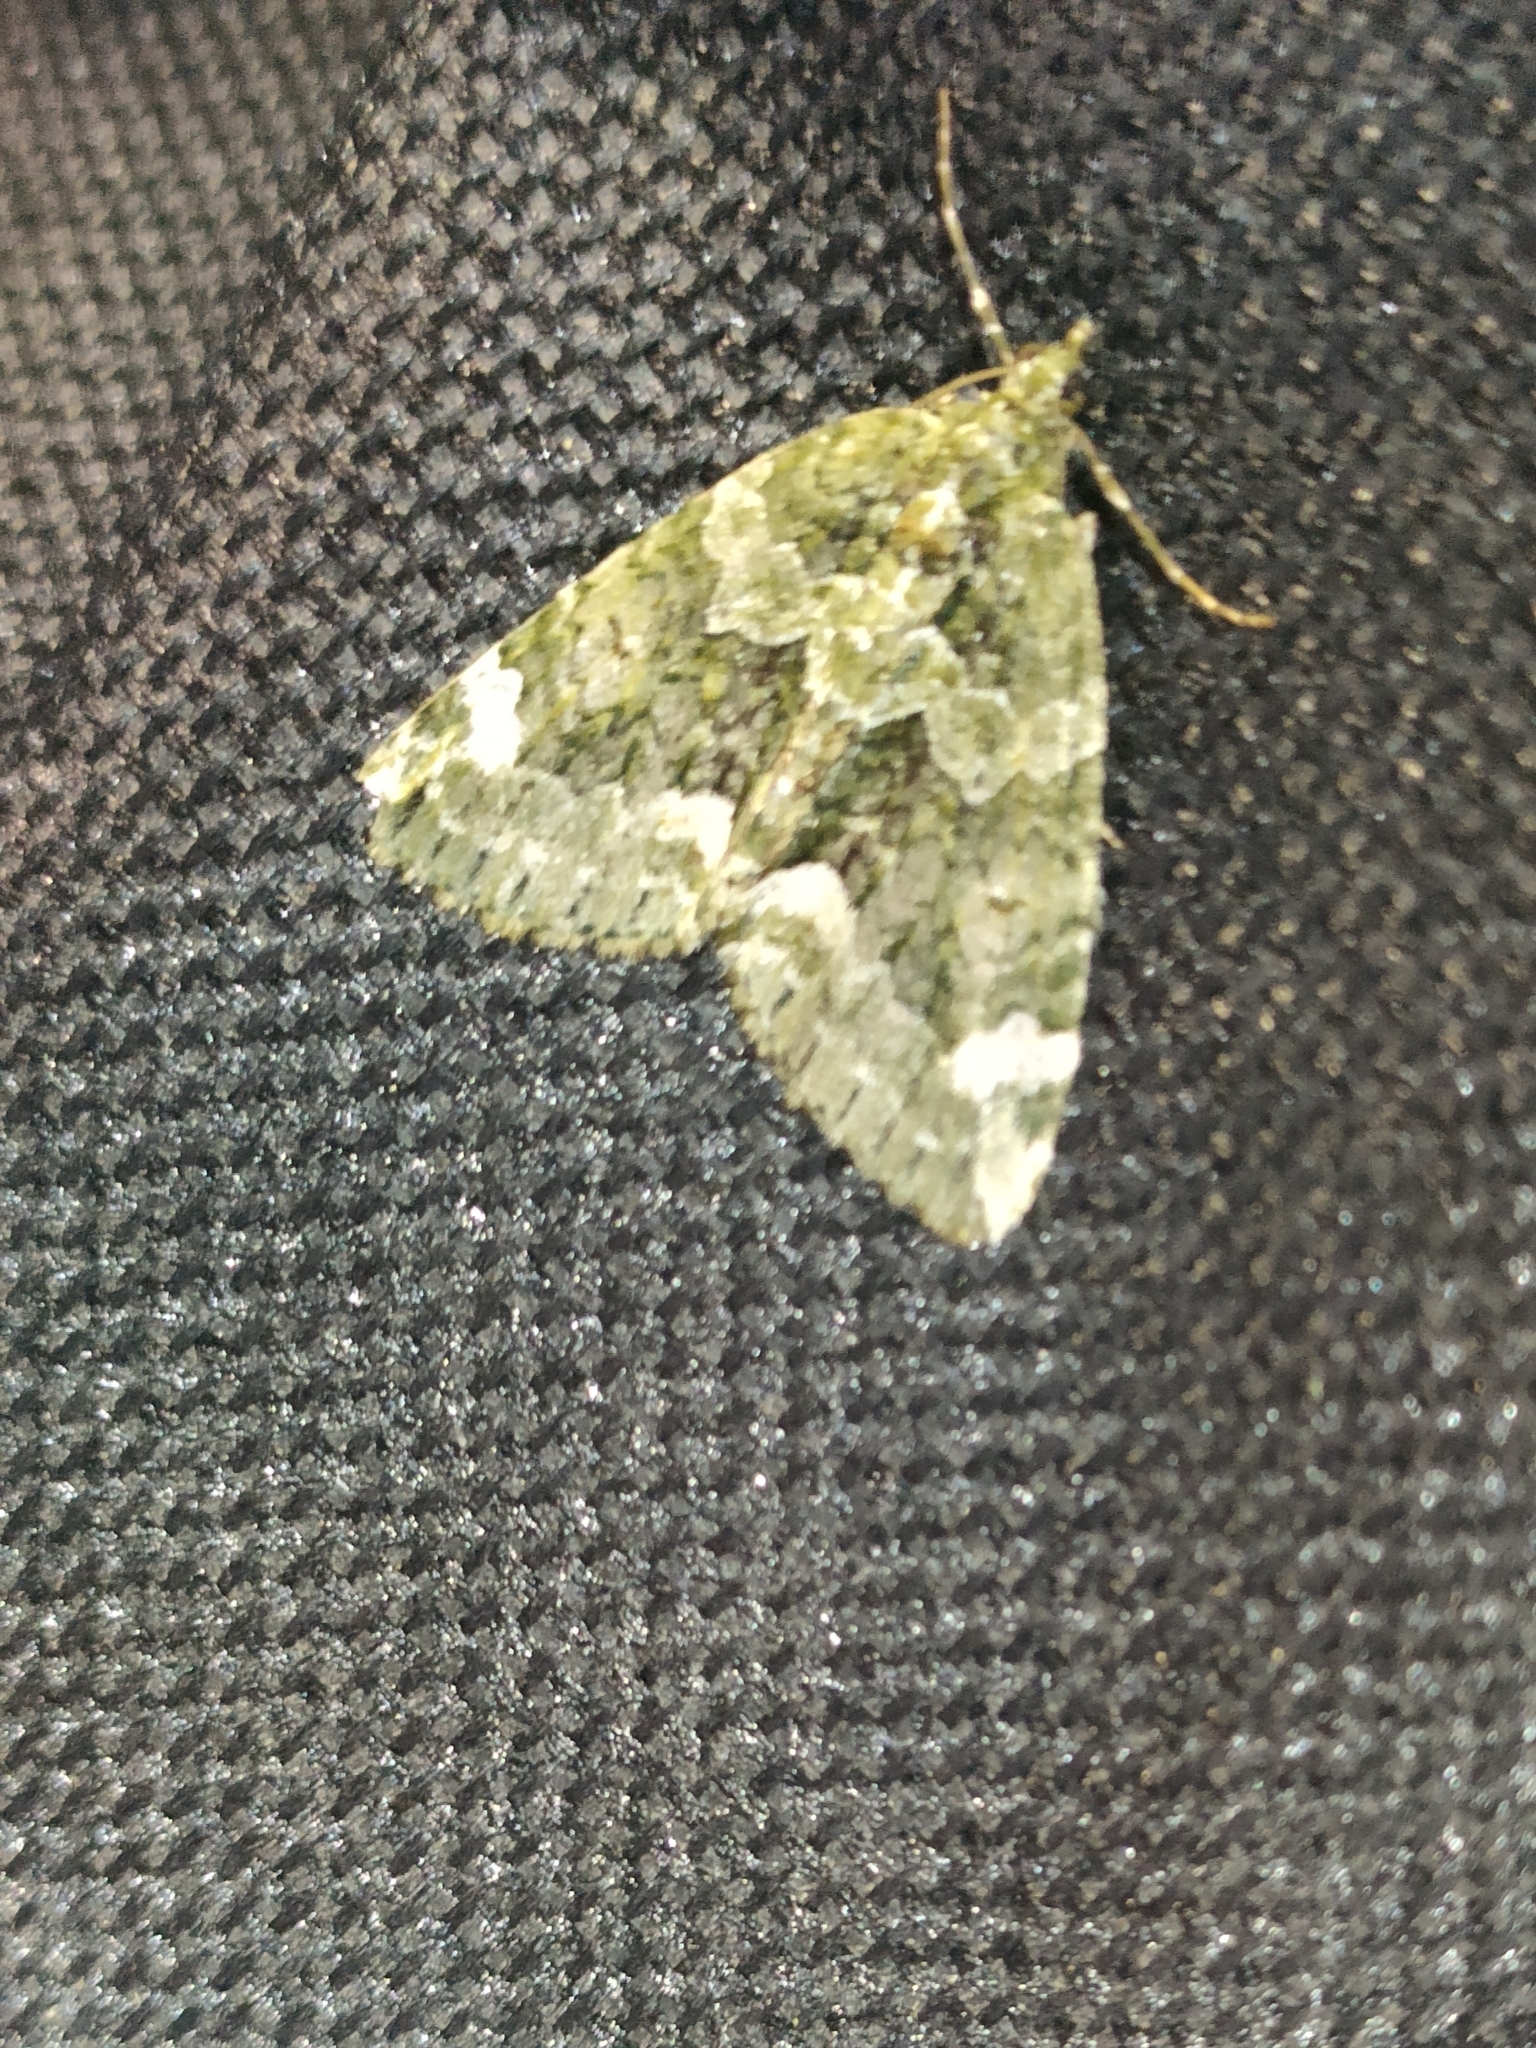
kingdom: Animalia
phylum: Arthropoda
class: Insecta
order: Lepidoptera
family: Geometridae
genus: Chloroclysta
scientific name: Chloroclysta siterata
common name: Red-green carpet
